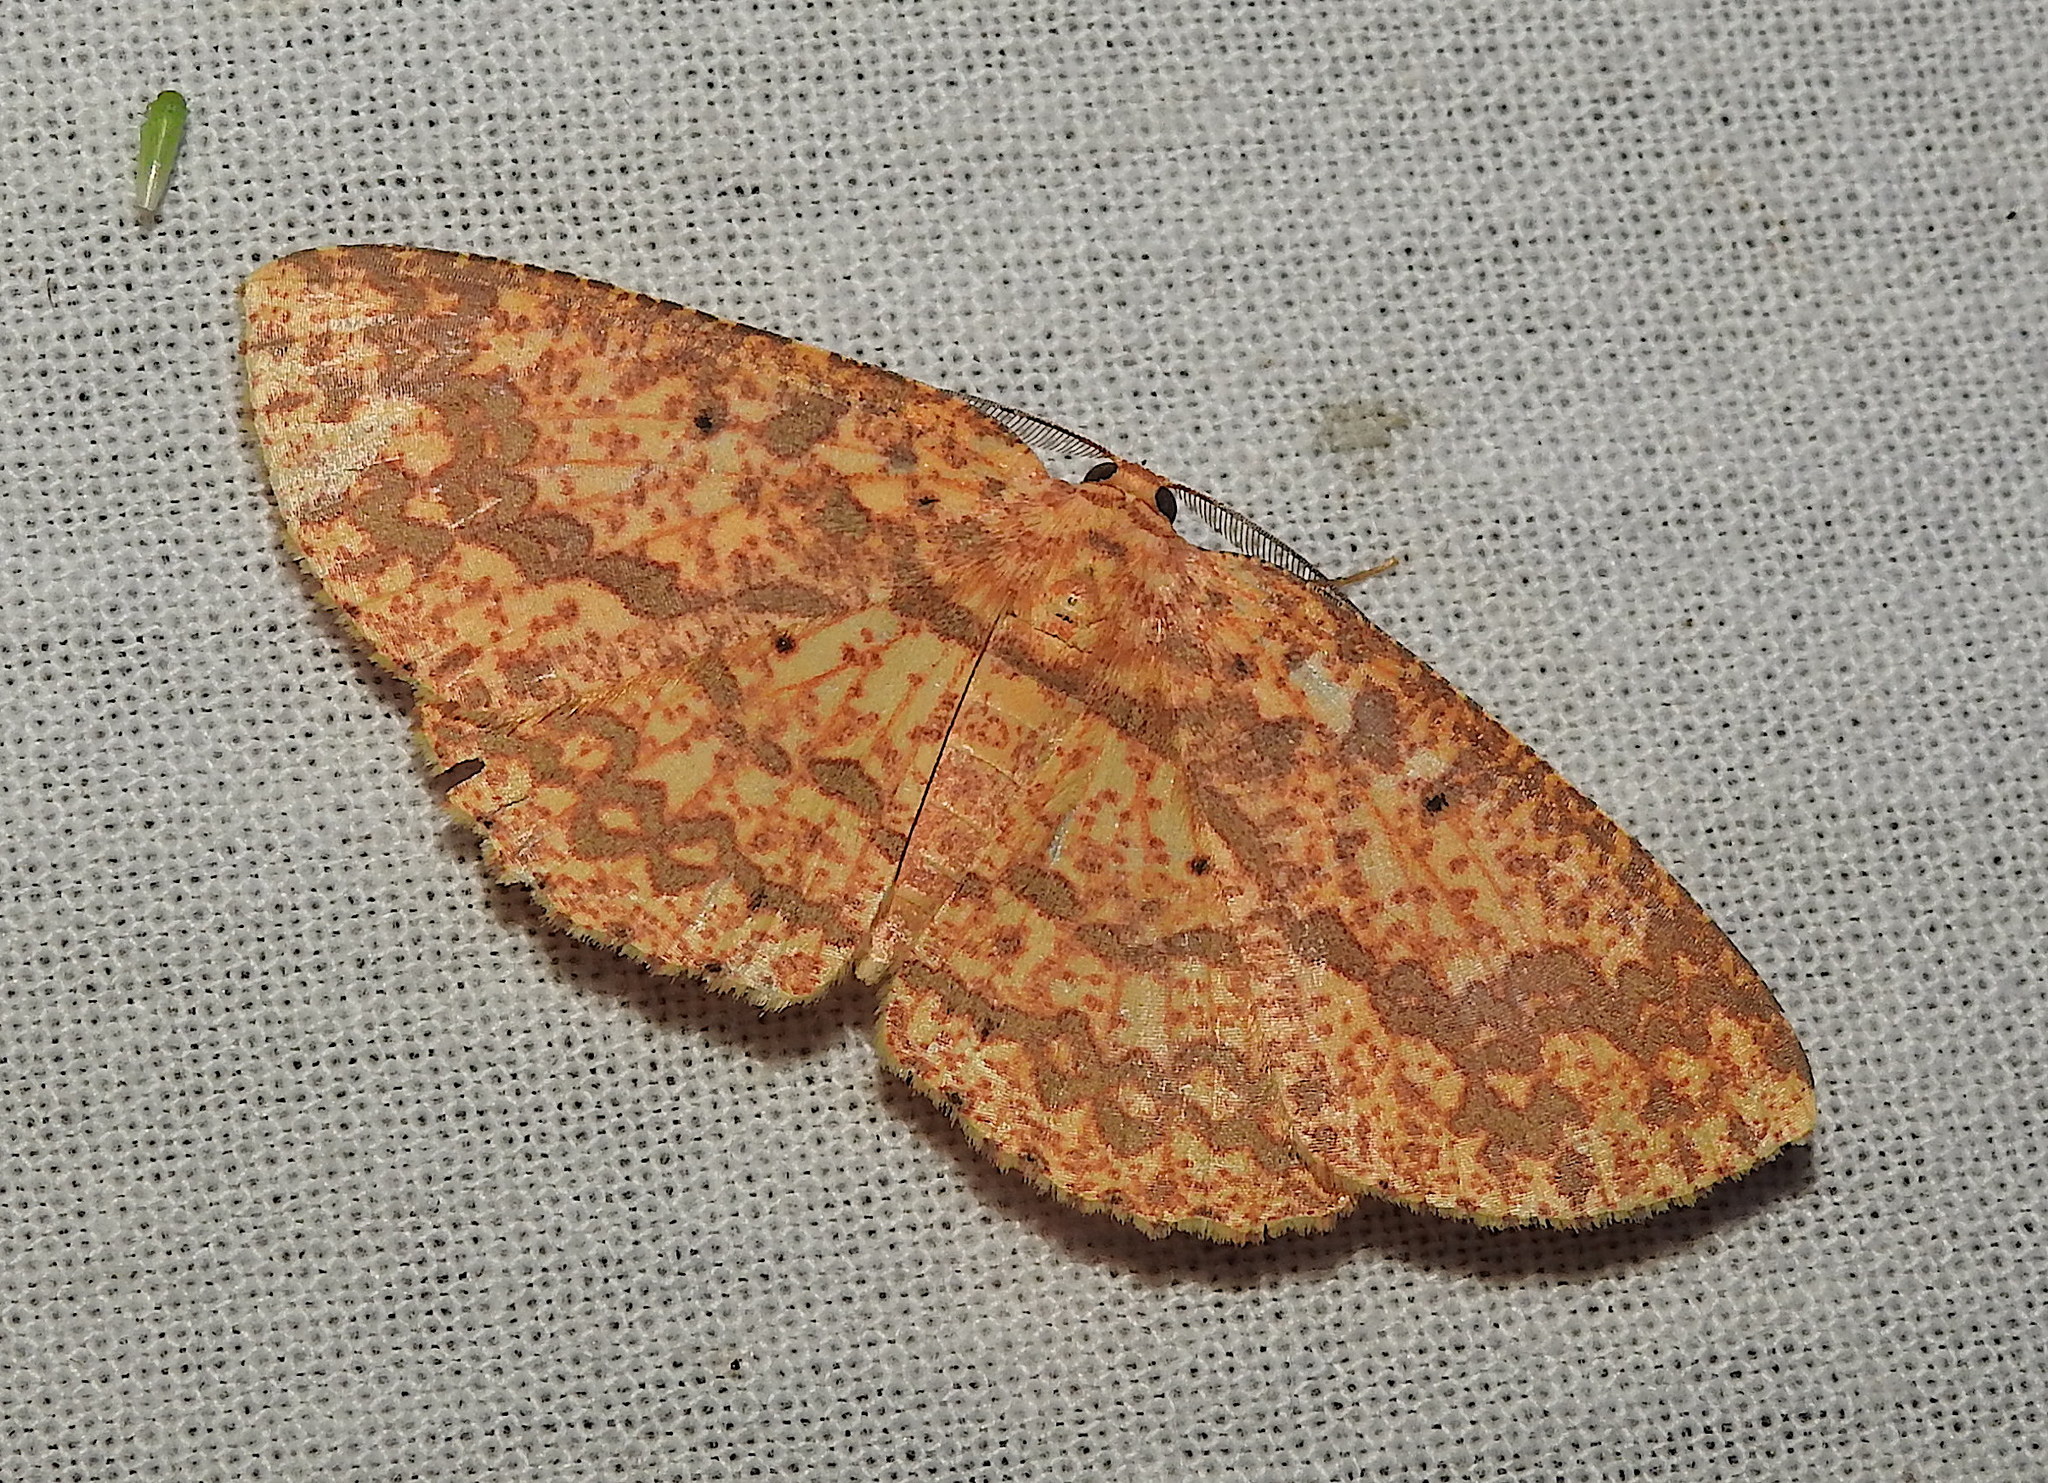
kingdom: Animalia
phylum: Arthropoda
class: Insecta
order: Lepidoptera
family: Geometridae
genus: Borbacha
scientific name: Borbacha pardaria
